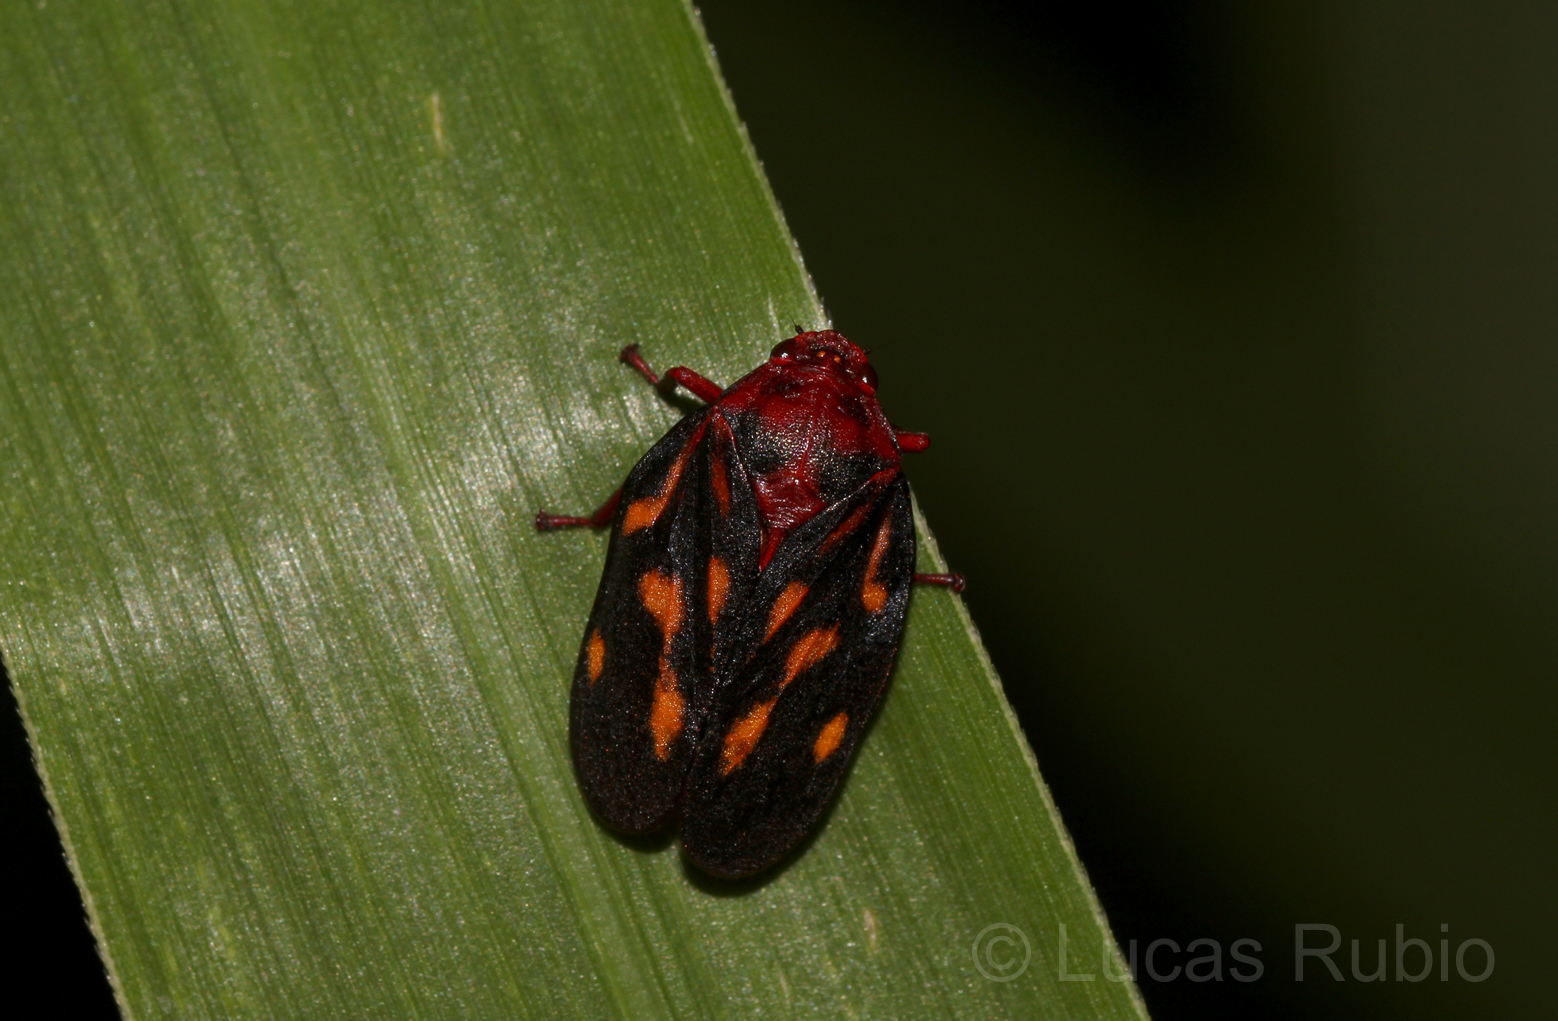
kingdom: Animalia
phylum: Arthropoda
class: Insecta
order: Hemiptera
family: Cercopidae
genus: Mahanarva
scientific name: Mahanarva rubropicta
